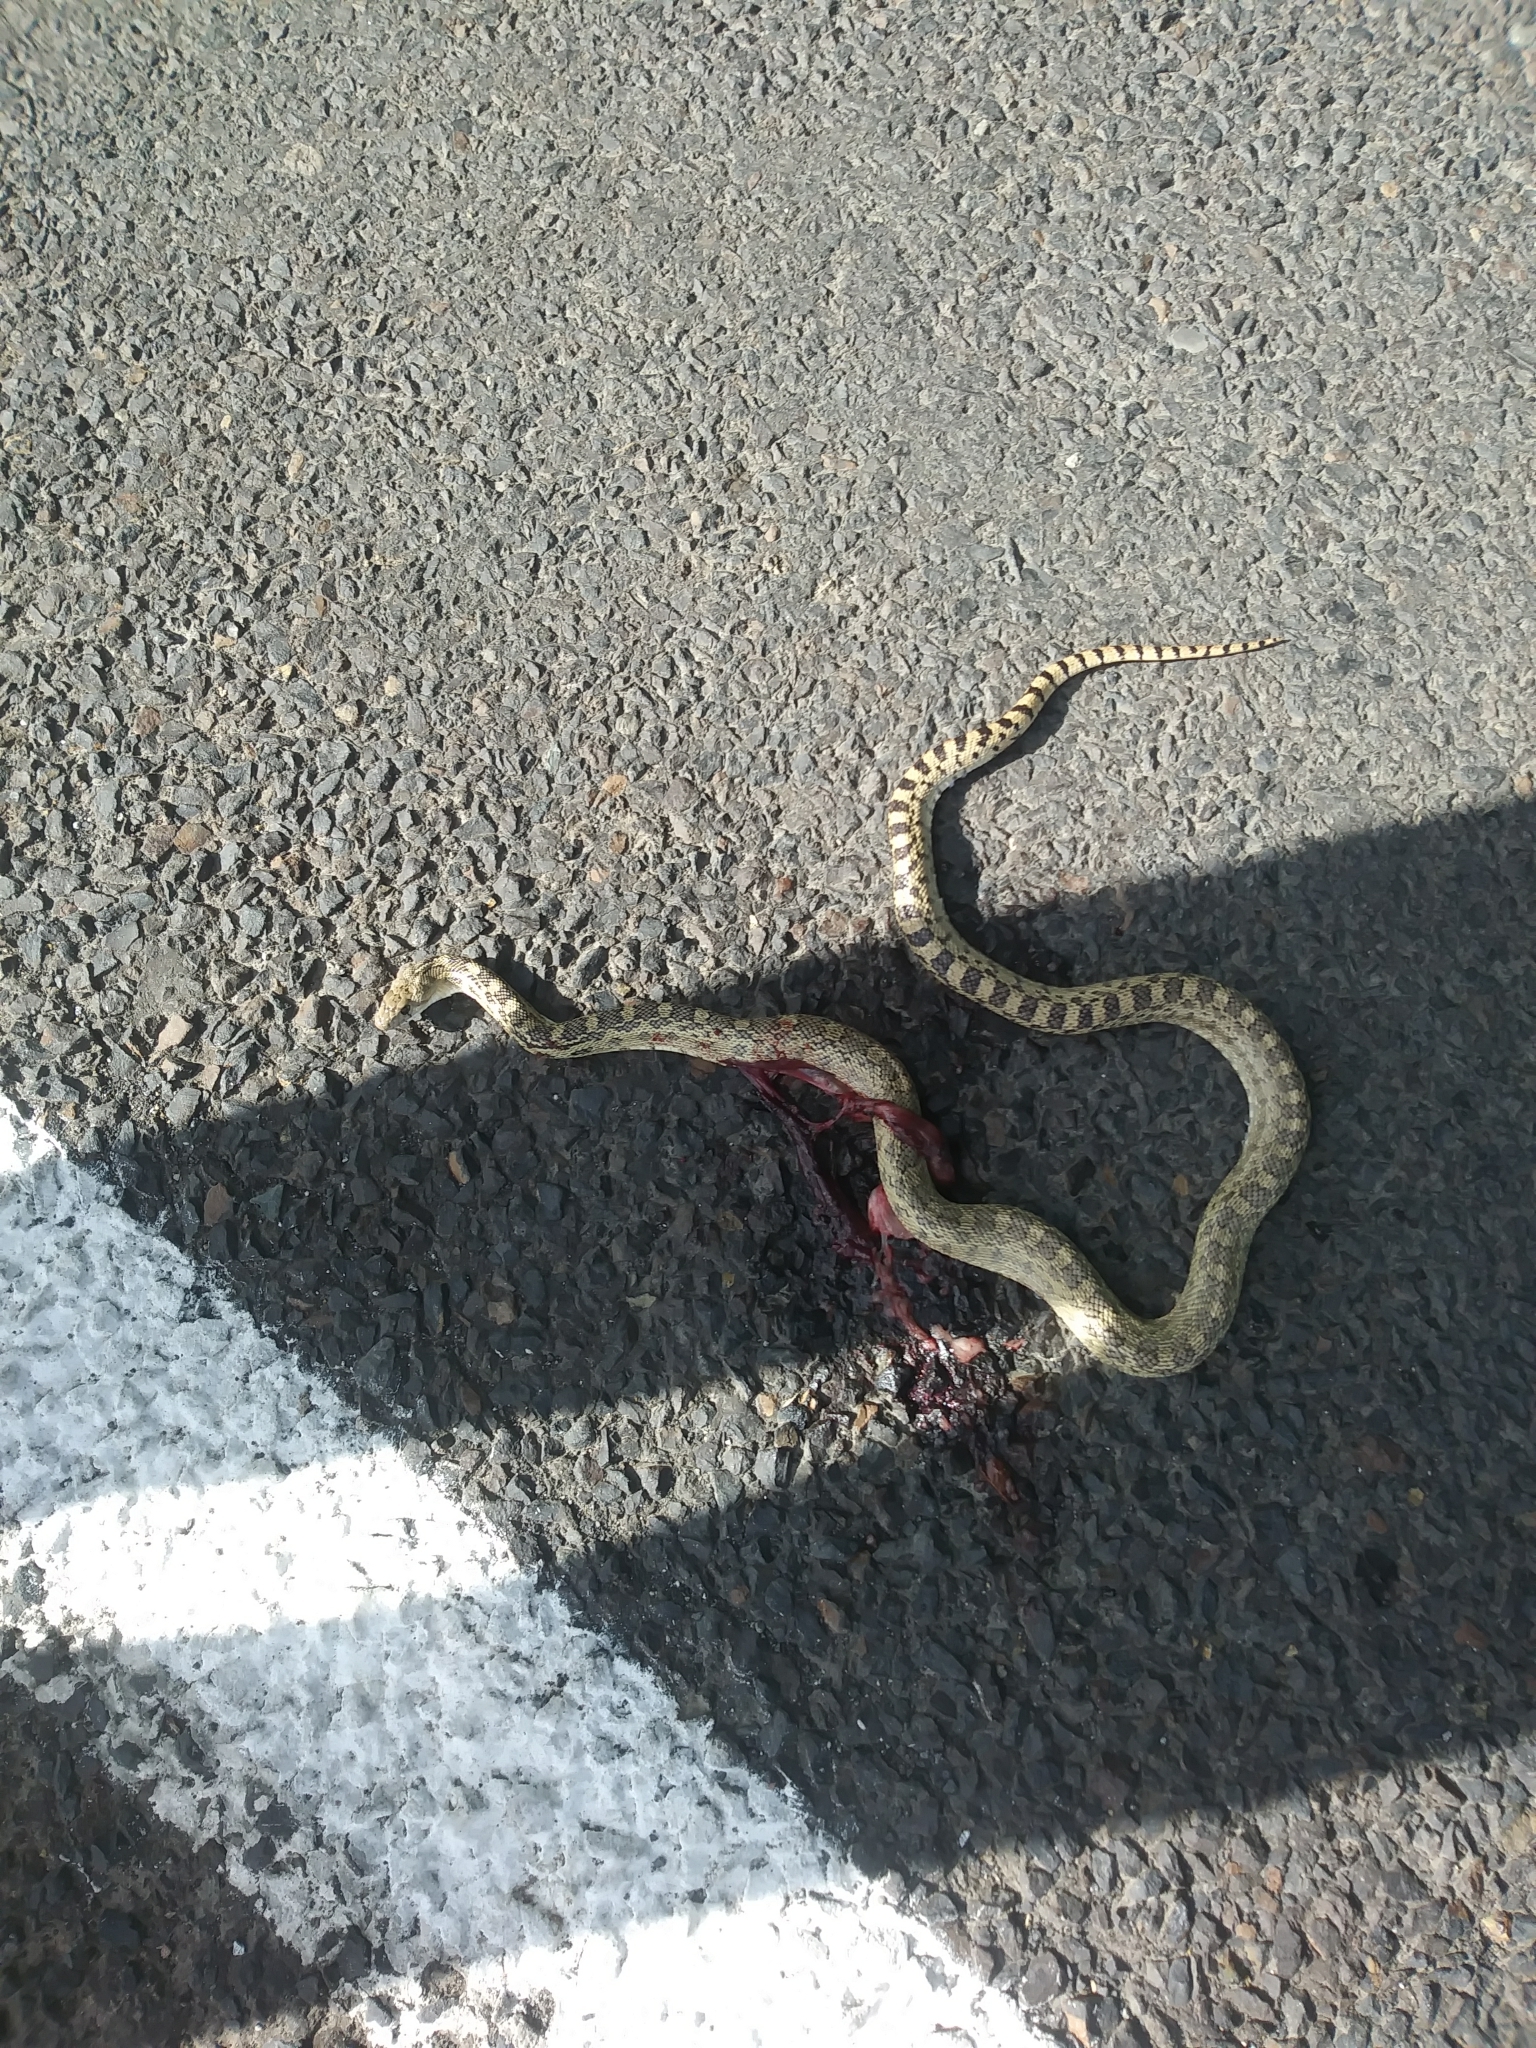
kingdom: Animalia
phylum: Chordata
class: Squamata
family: Colubridae
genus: Pituophis
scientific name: Pituophis catenifer
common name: Gopher snake
